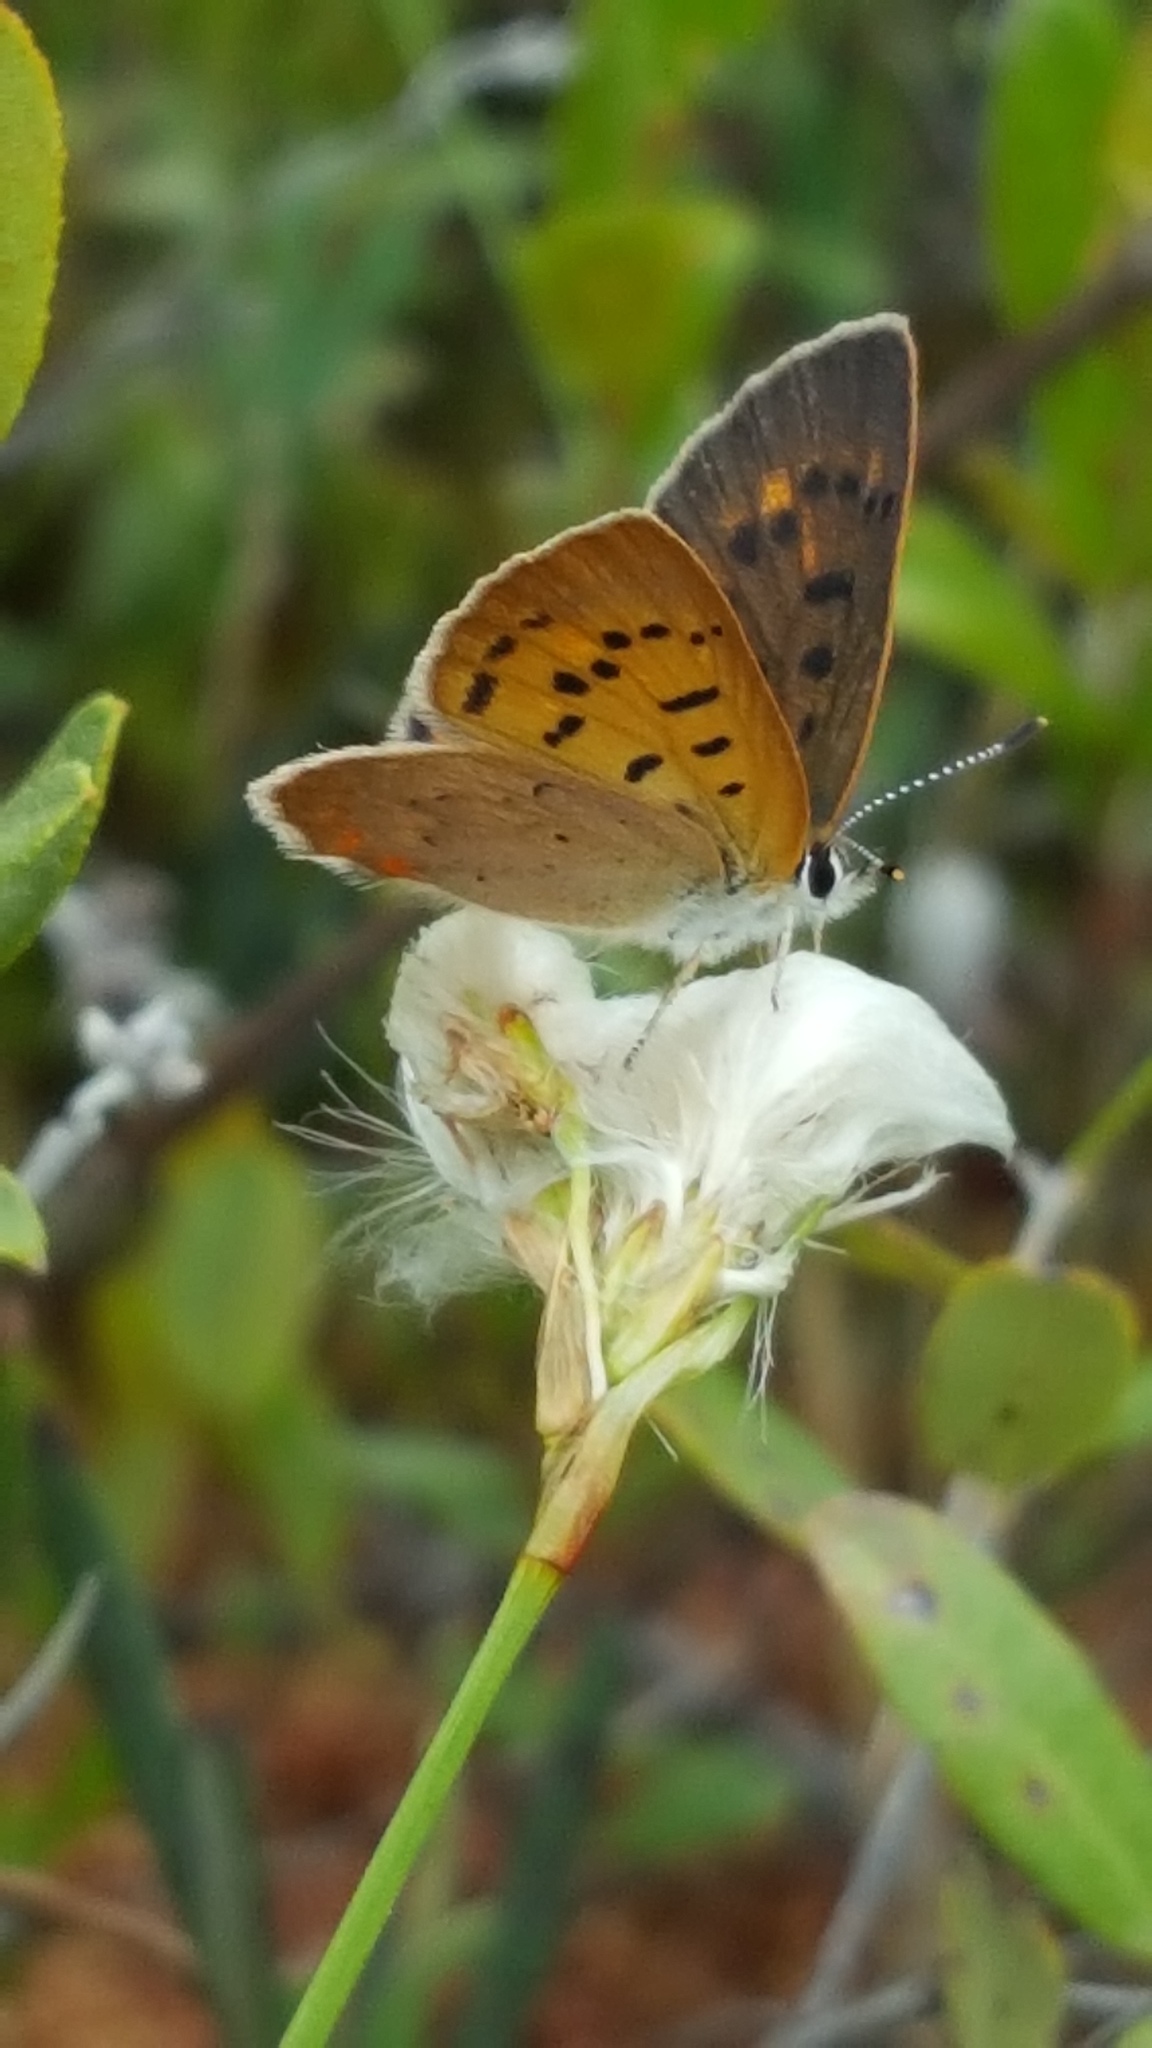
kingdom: Animalia
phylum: Arthropoda
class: Insecta
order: Lepidoptera
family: Lycaenidae
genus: Tharsalea
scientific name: Tharsalea dorcas
